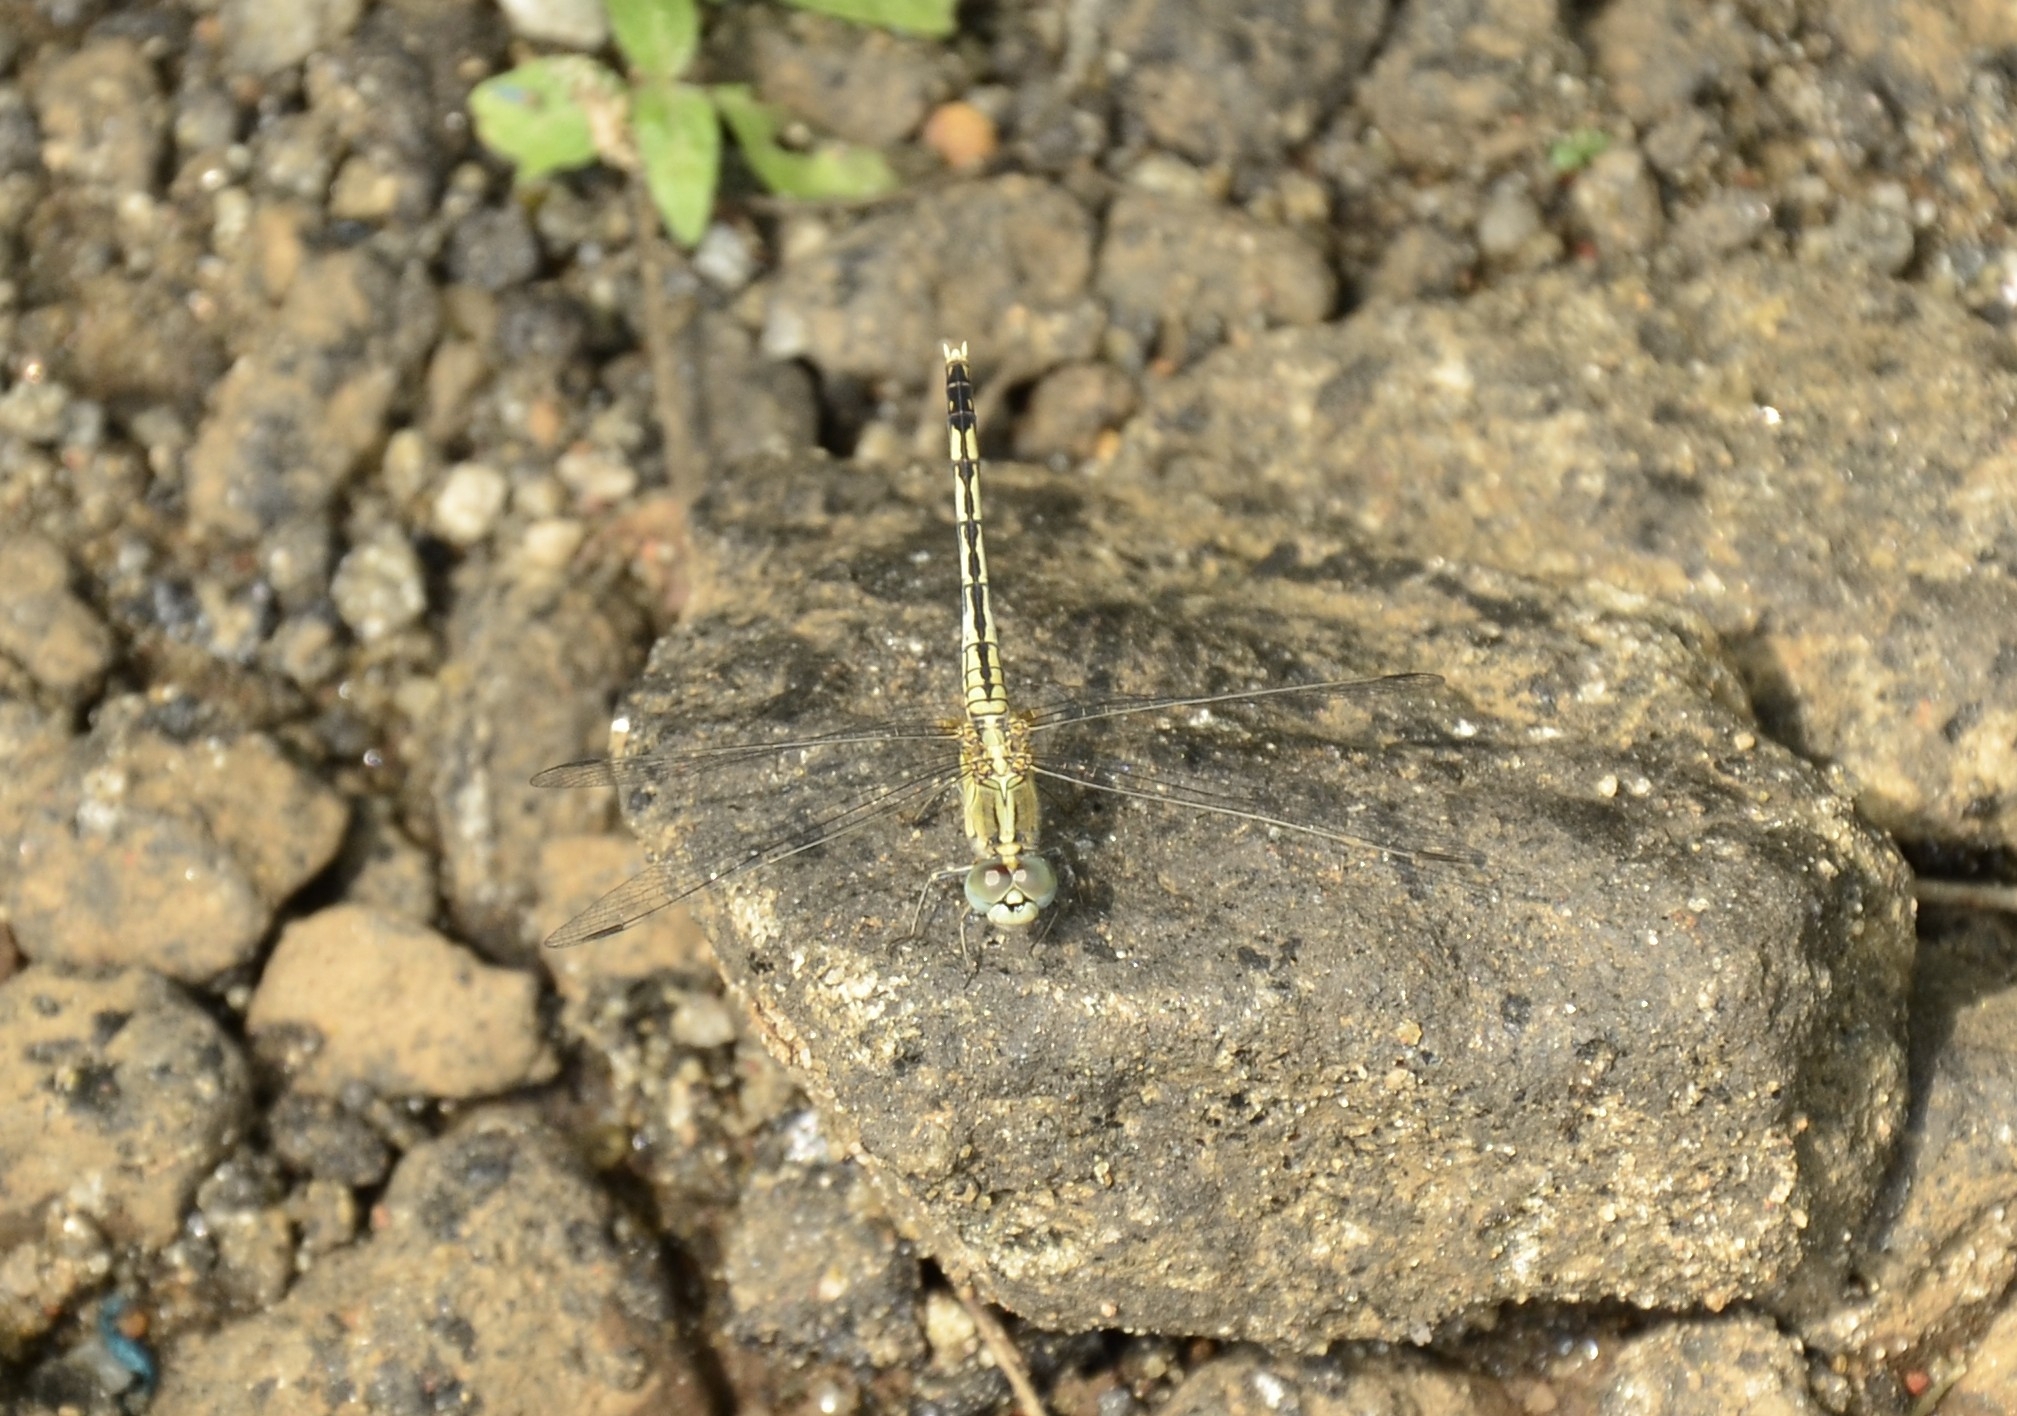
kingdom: Animalia
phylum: Arthropoda
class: Insecta
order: Odonata
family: Libellulidae
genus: Diplacodes
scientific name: Diplacodes trivialis
